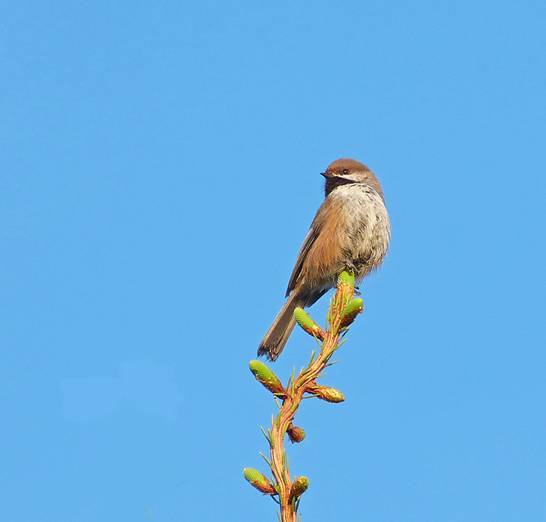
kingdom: Animalia
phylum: Chordata
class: Aves
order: Passeriformes
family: Paridae
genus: Poecile
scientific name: Poecile hudsonicus
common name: Boreal chickadee
